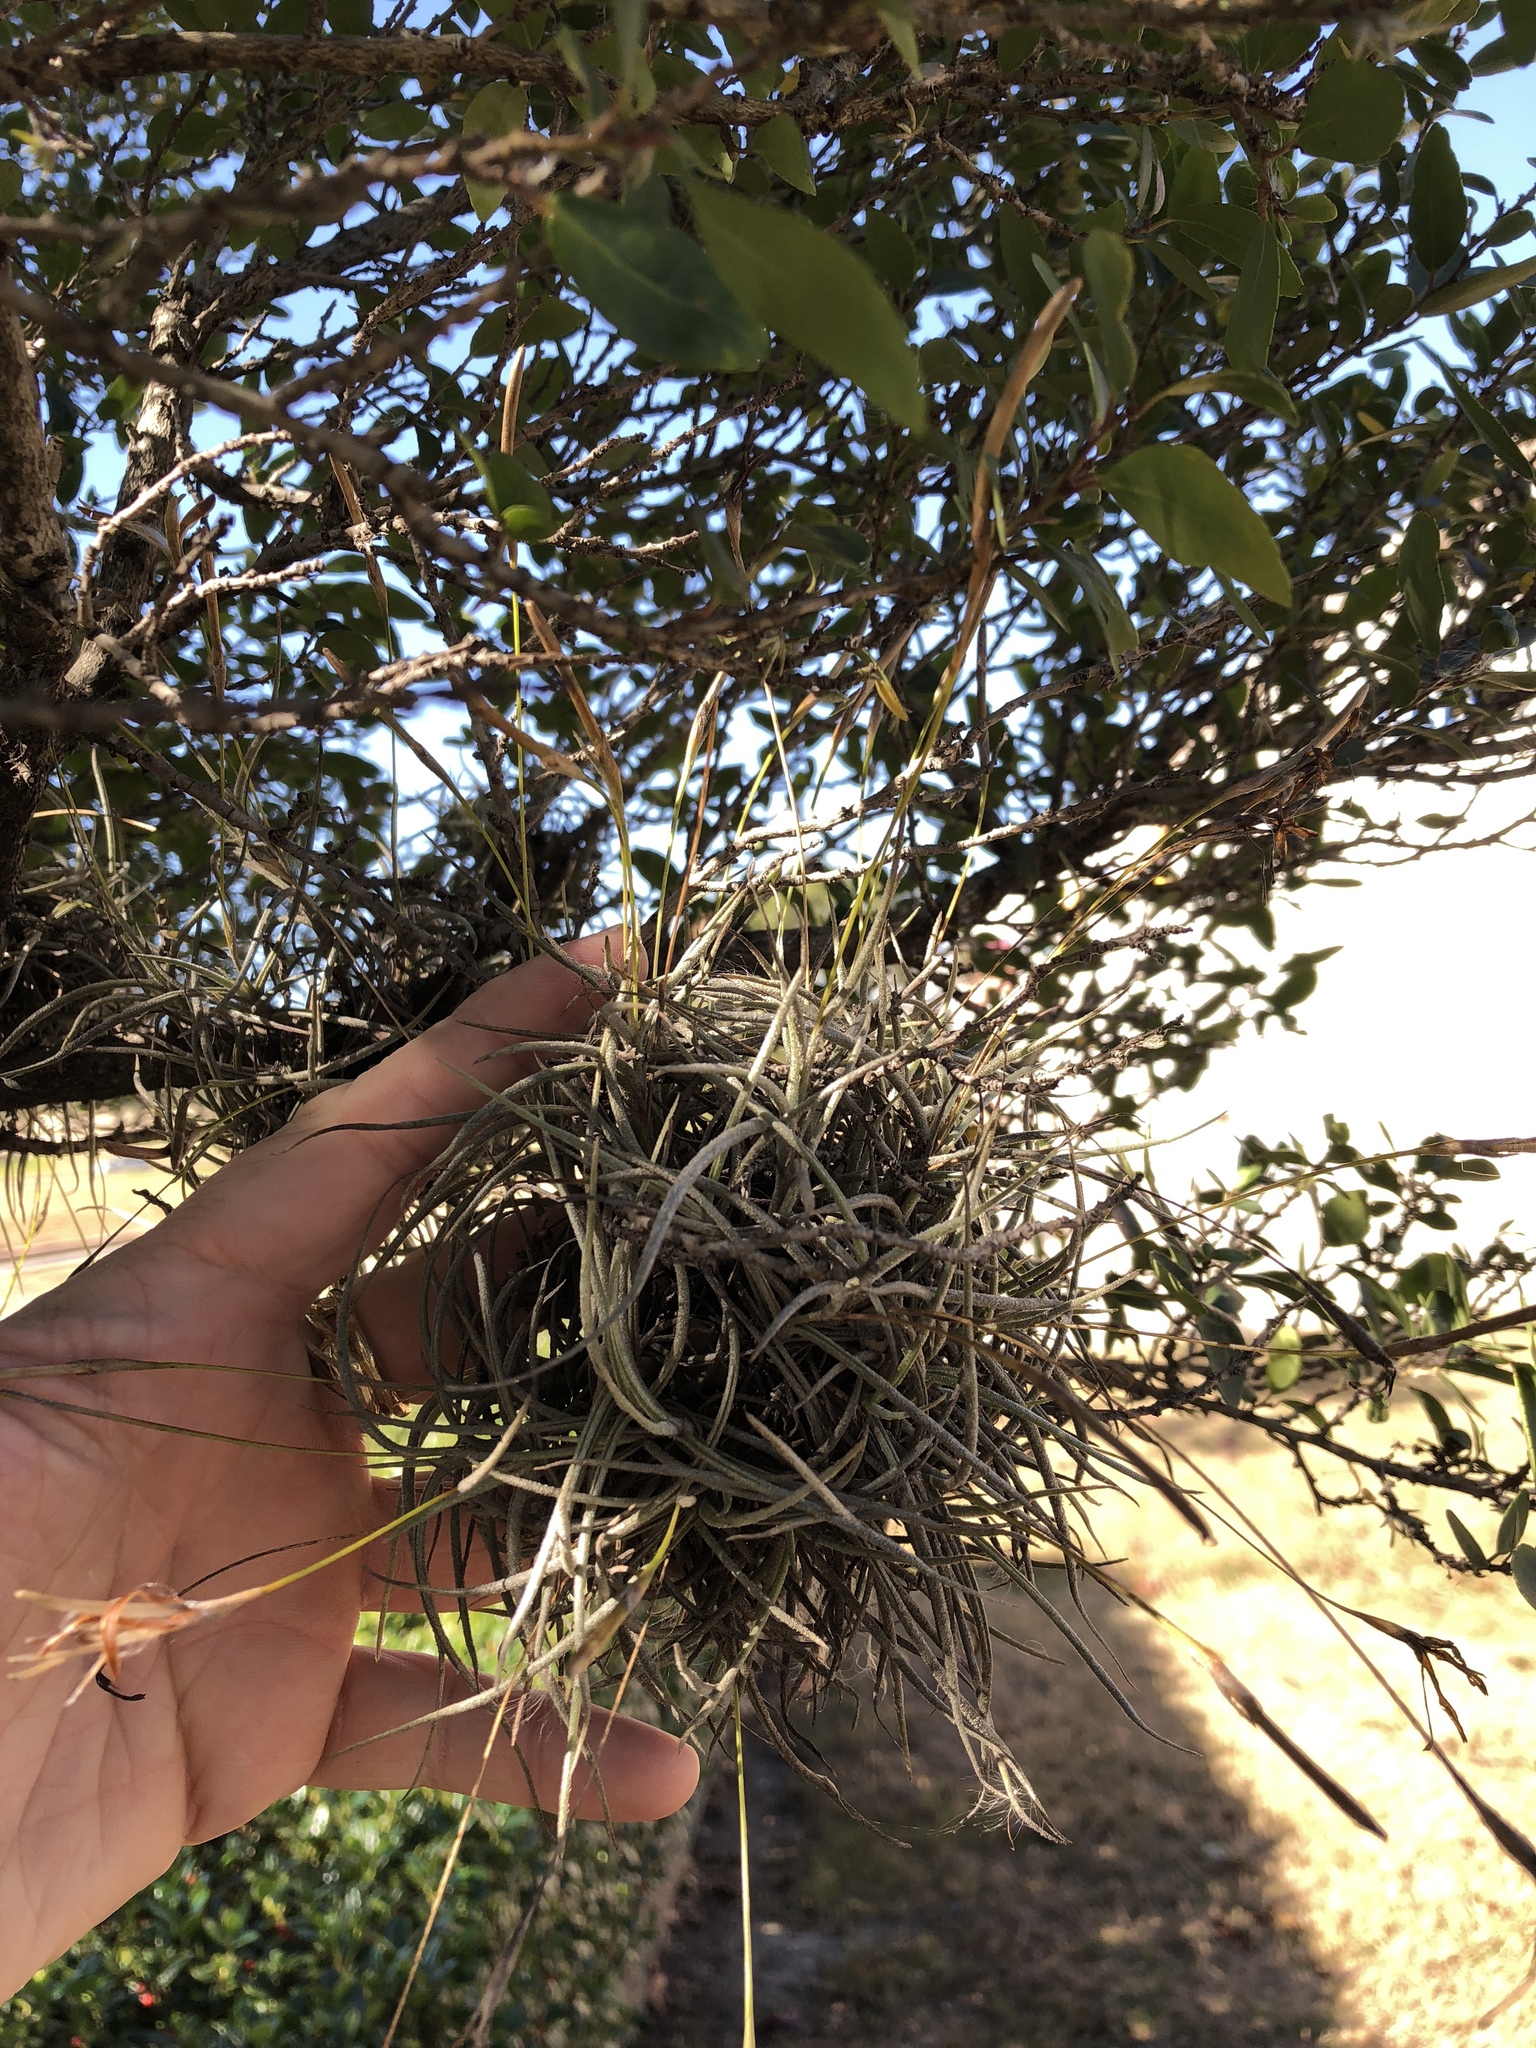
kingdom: Plantae
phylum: Tracheophyta
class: Liliopsida
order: Poales
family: Bromeliaceae
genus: Tillandsia
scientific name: Tillandsia recurvata
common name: Small ballmoss
